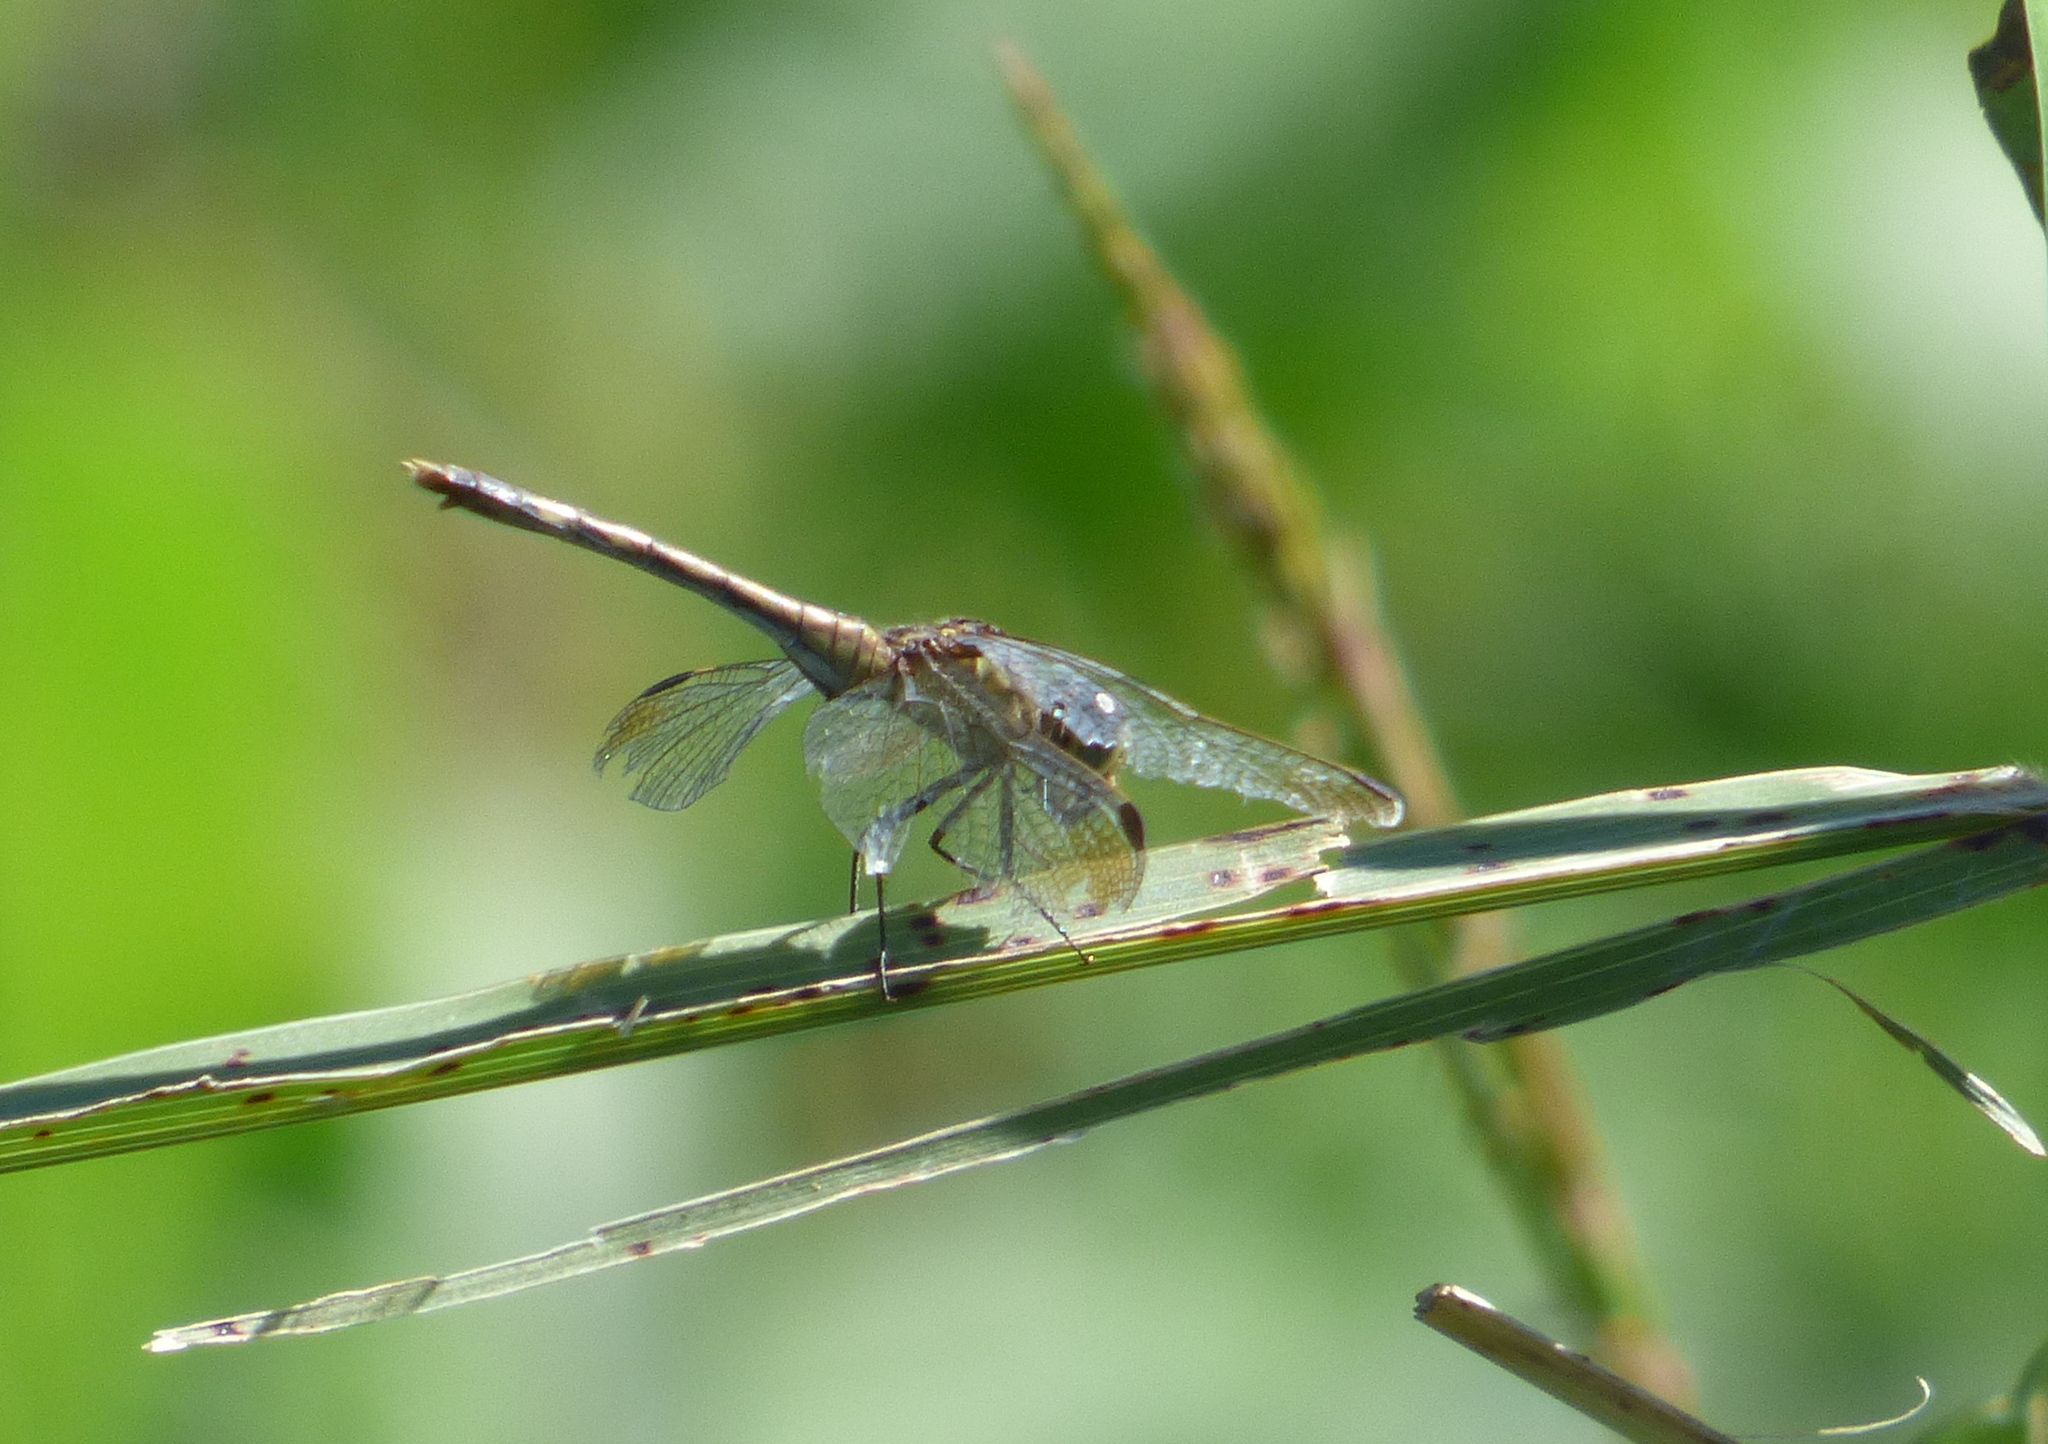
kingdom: Animalia
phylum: Arthropoda
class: Insecta
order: Odonata
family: Libellulidae
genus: Erythrodiplax
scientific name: Erythrodiplax nigricans
